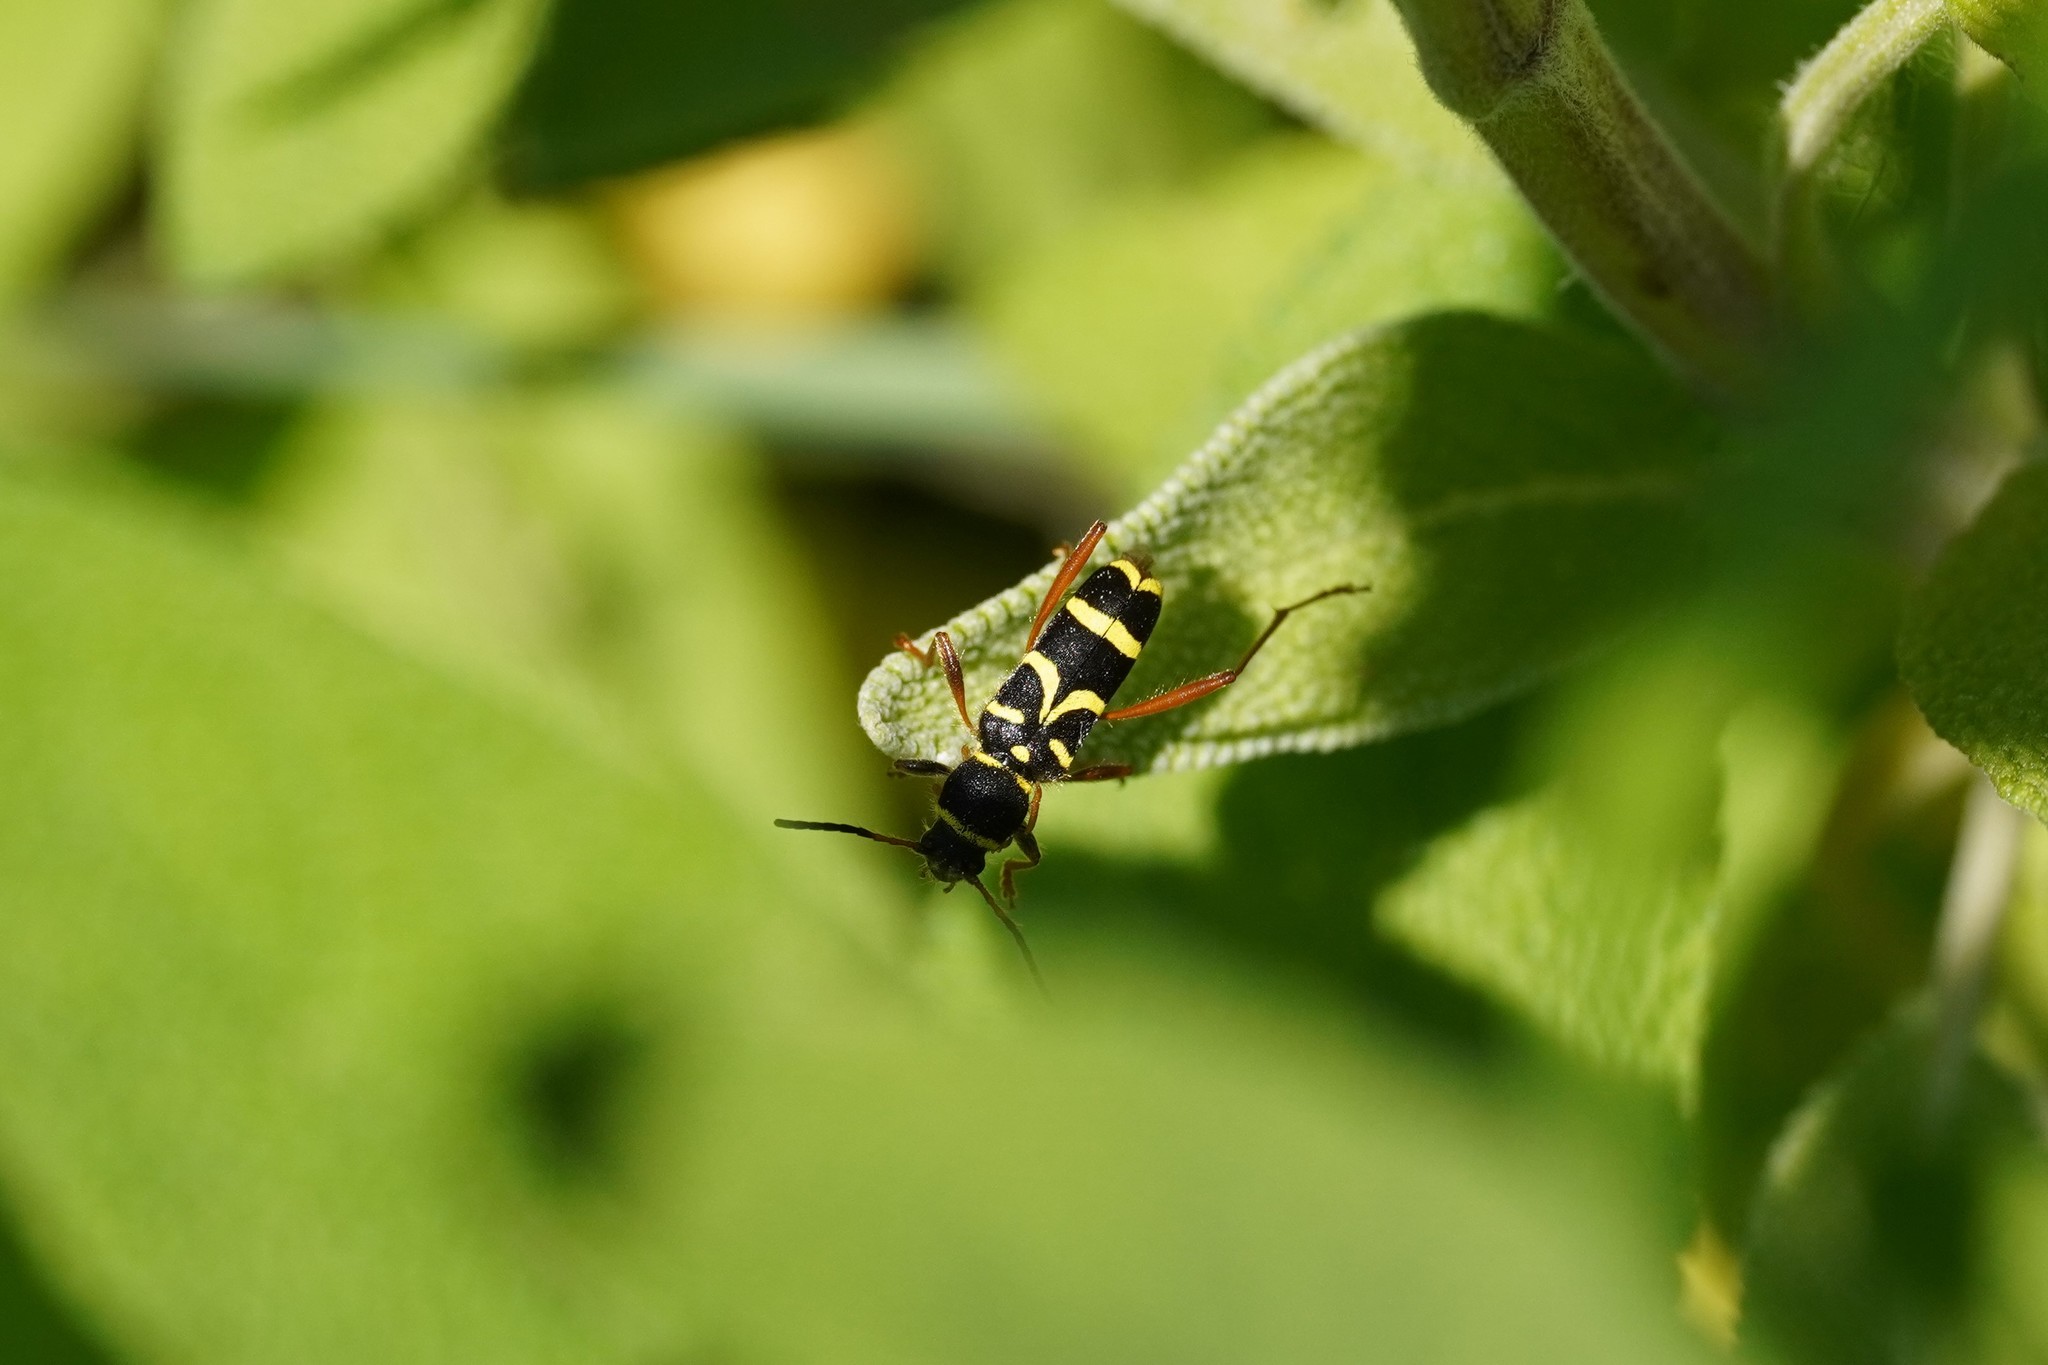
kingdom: Animalia
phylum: Arthropoda
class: Insecta
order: Coleoptera
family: Cerambycidae
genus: Clytus
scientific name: Clytus arietis
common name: Wasp beetle
